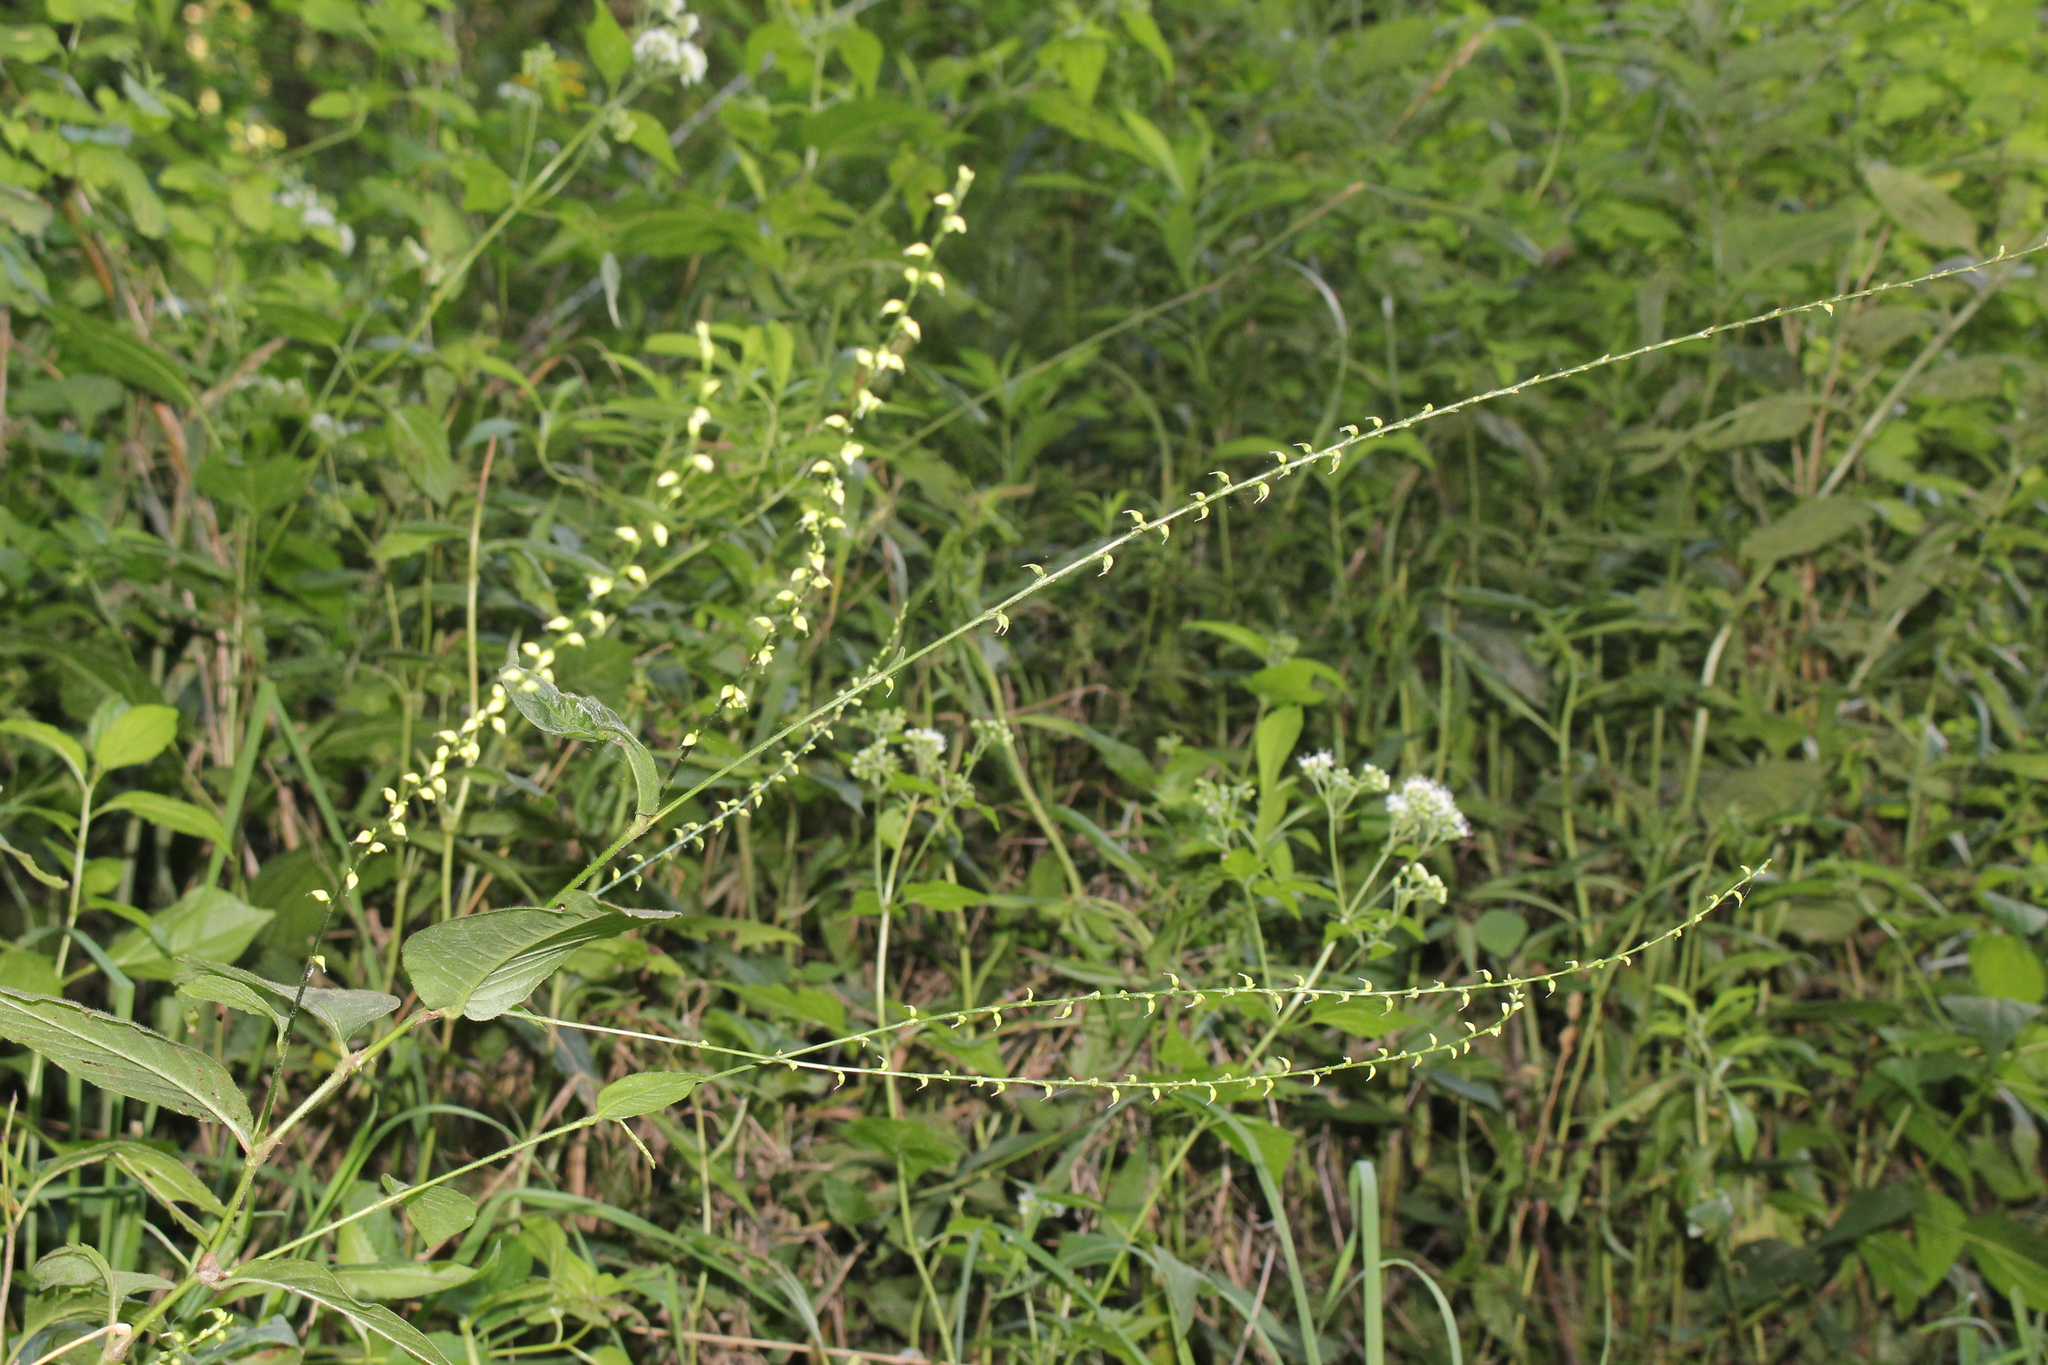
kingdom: Plantae
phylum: Tracheophyta
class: Magnoliopsida
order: Caryophyllales
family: Polygonaceae
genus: Persicaria
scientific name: Persicaria virginiana
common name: Jumpseed
